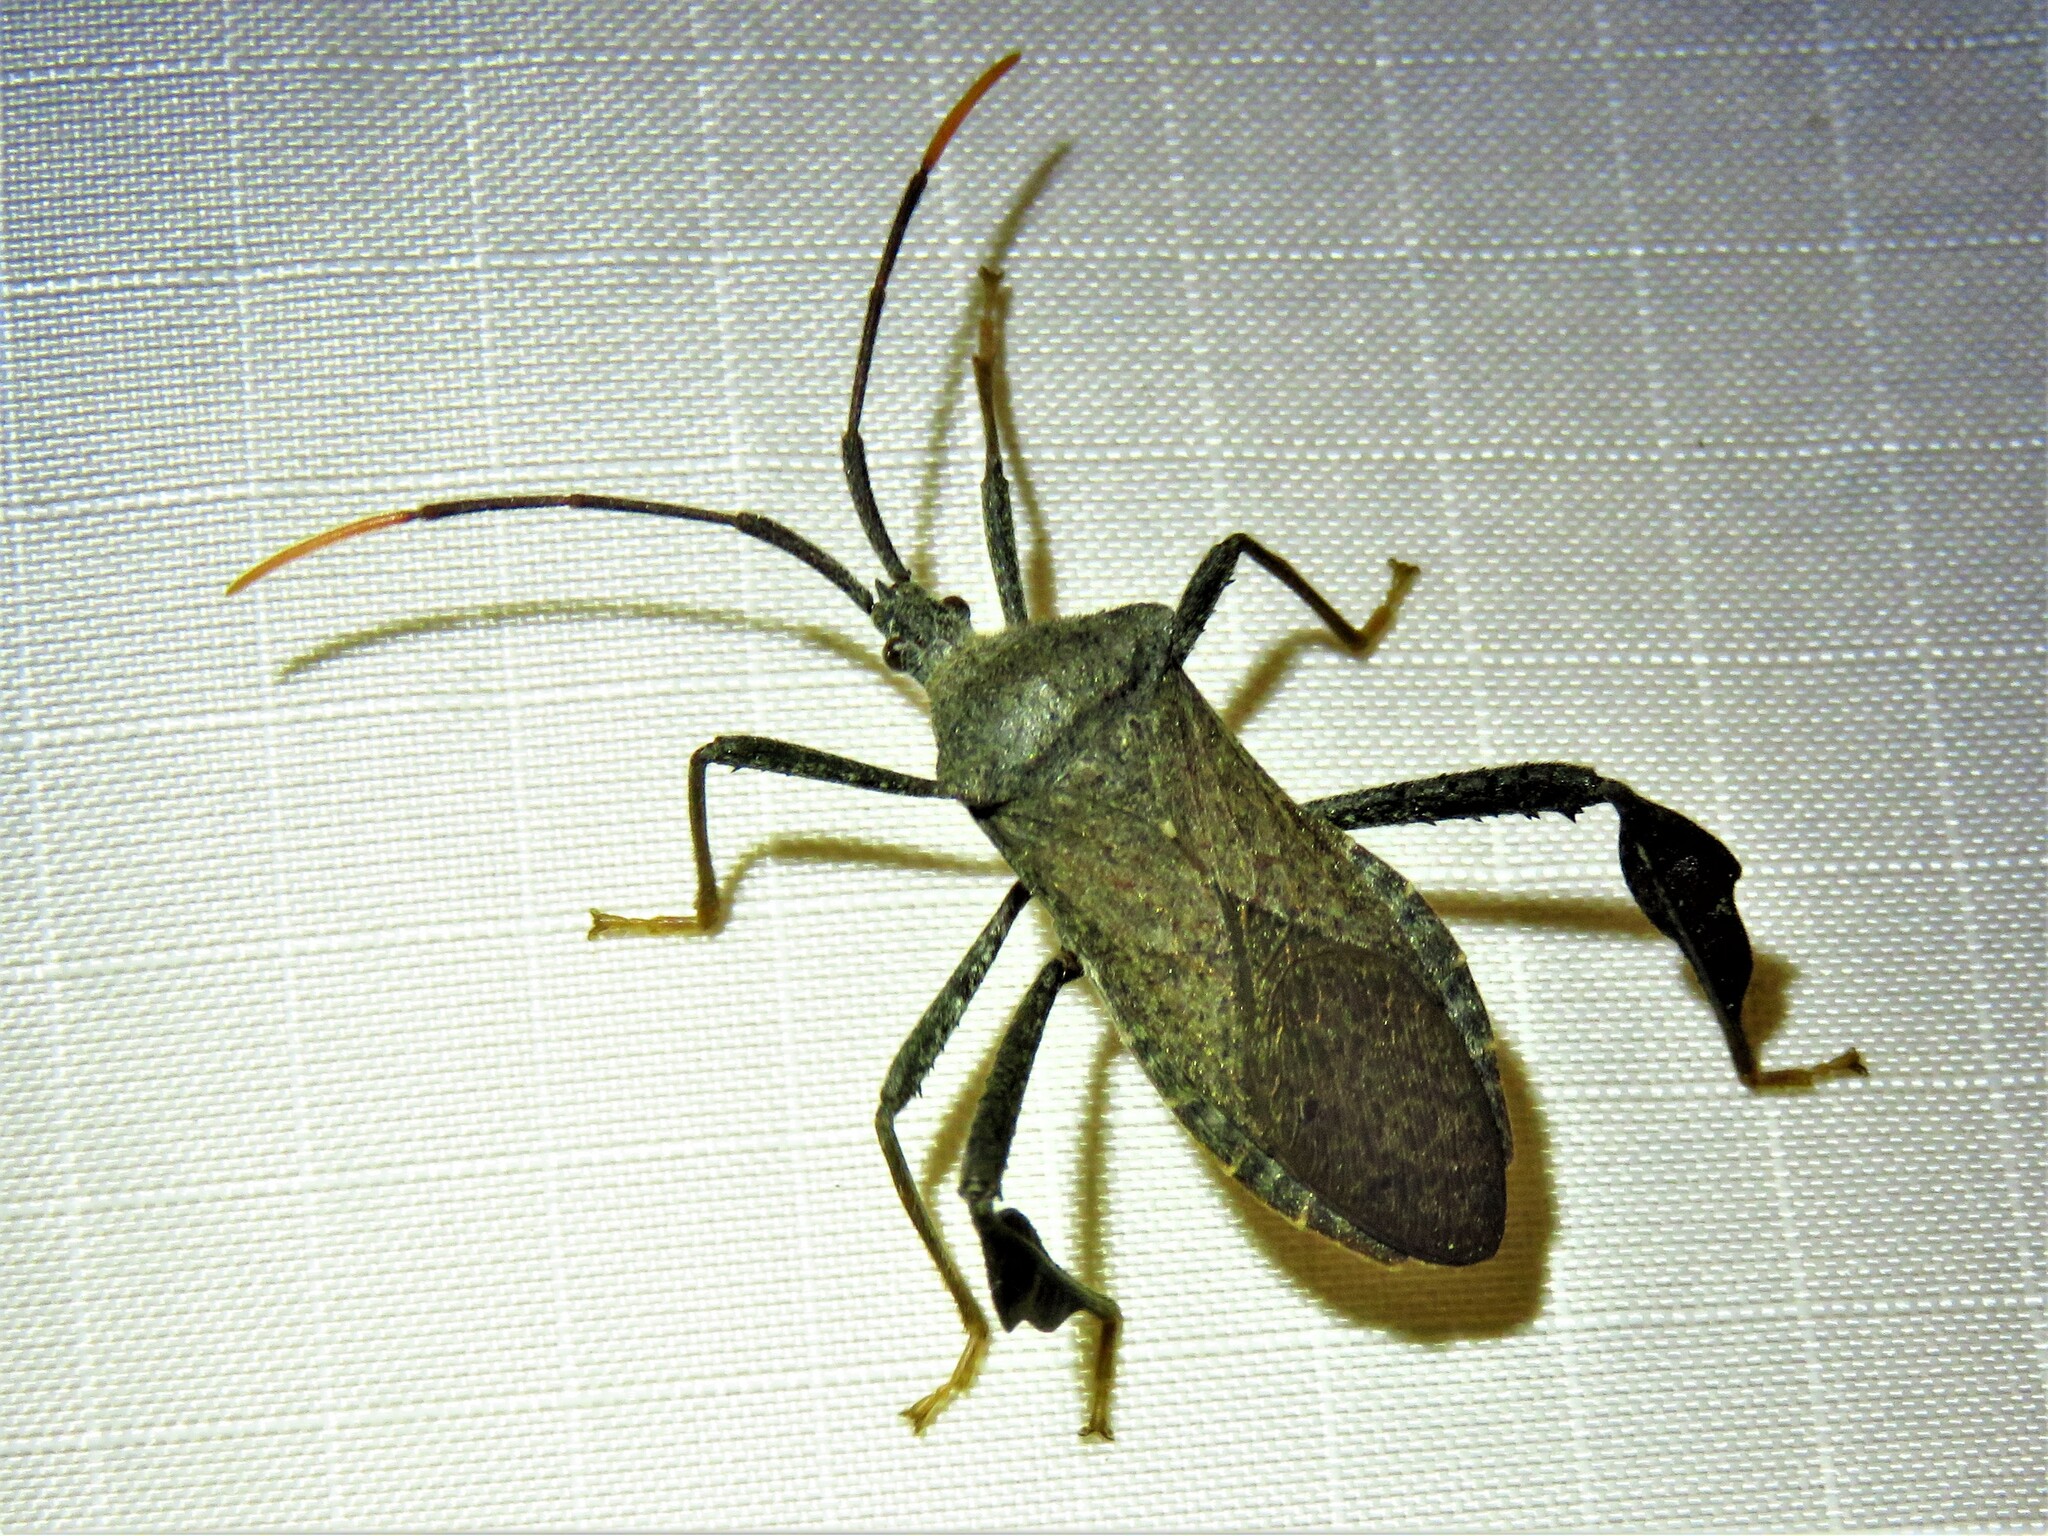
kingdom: Animalia
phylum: Arthropoda
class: Insecta
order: Hemiptera
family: Coreidae
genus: Acanthocephala
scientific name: Acanthocephala terminalis
